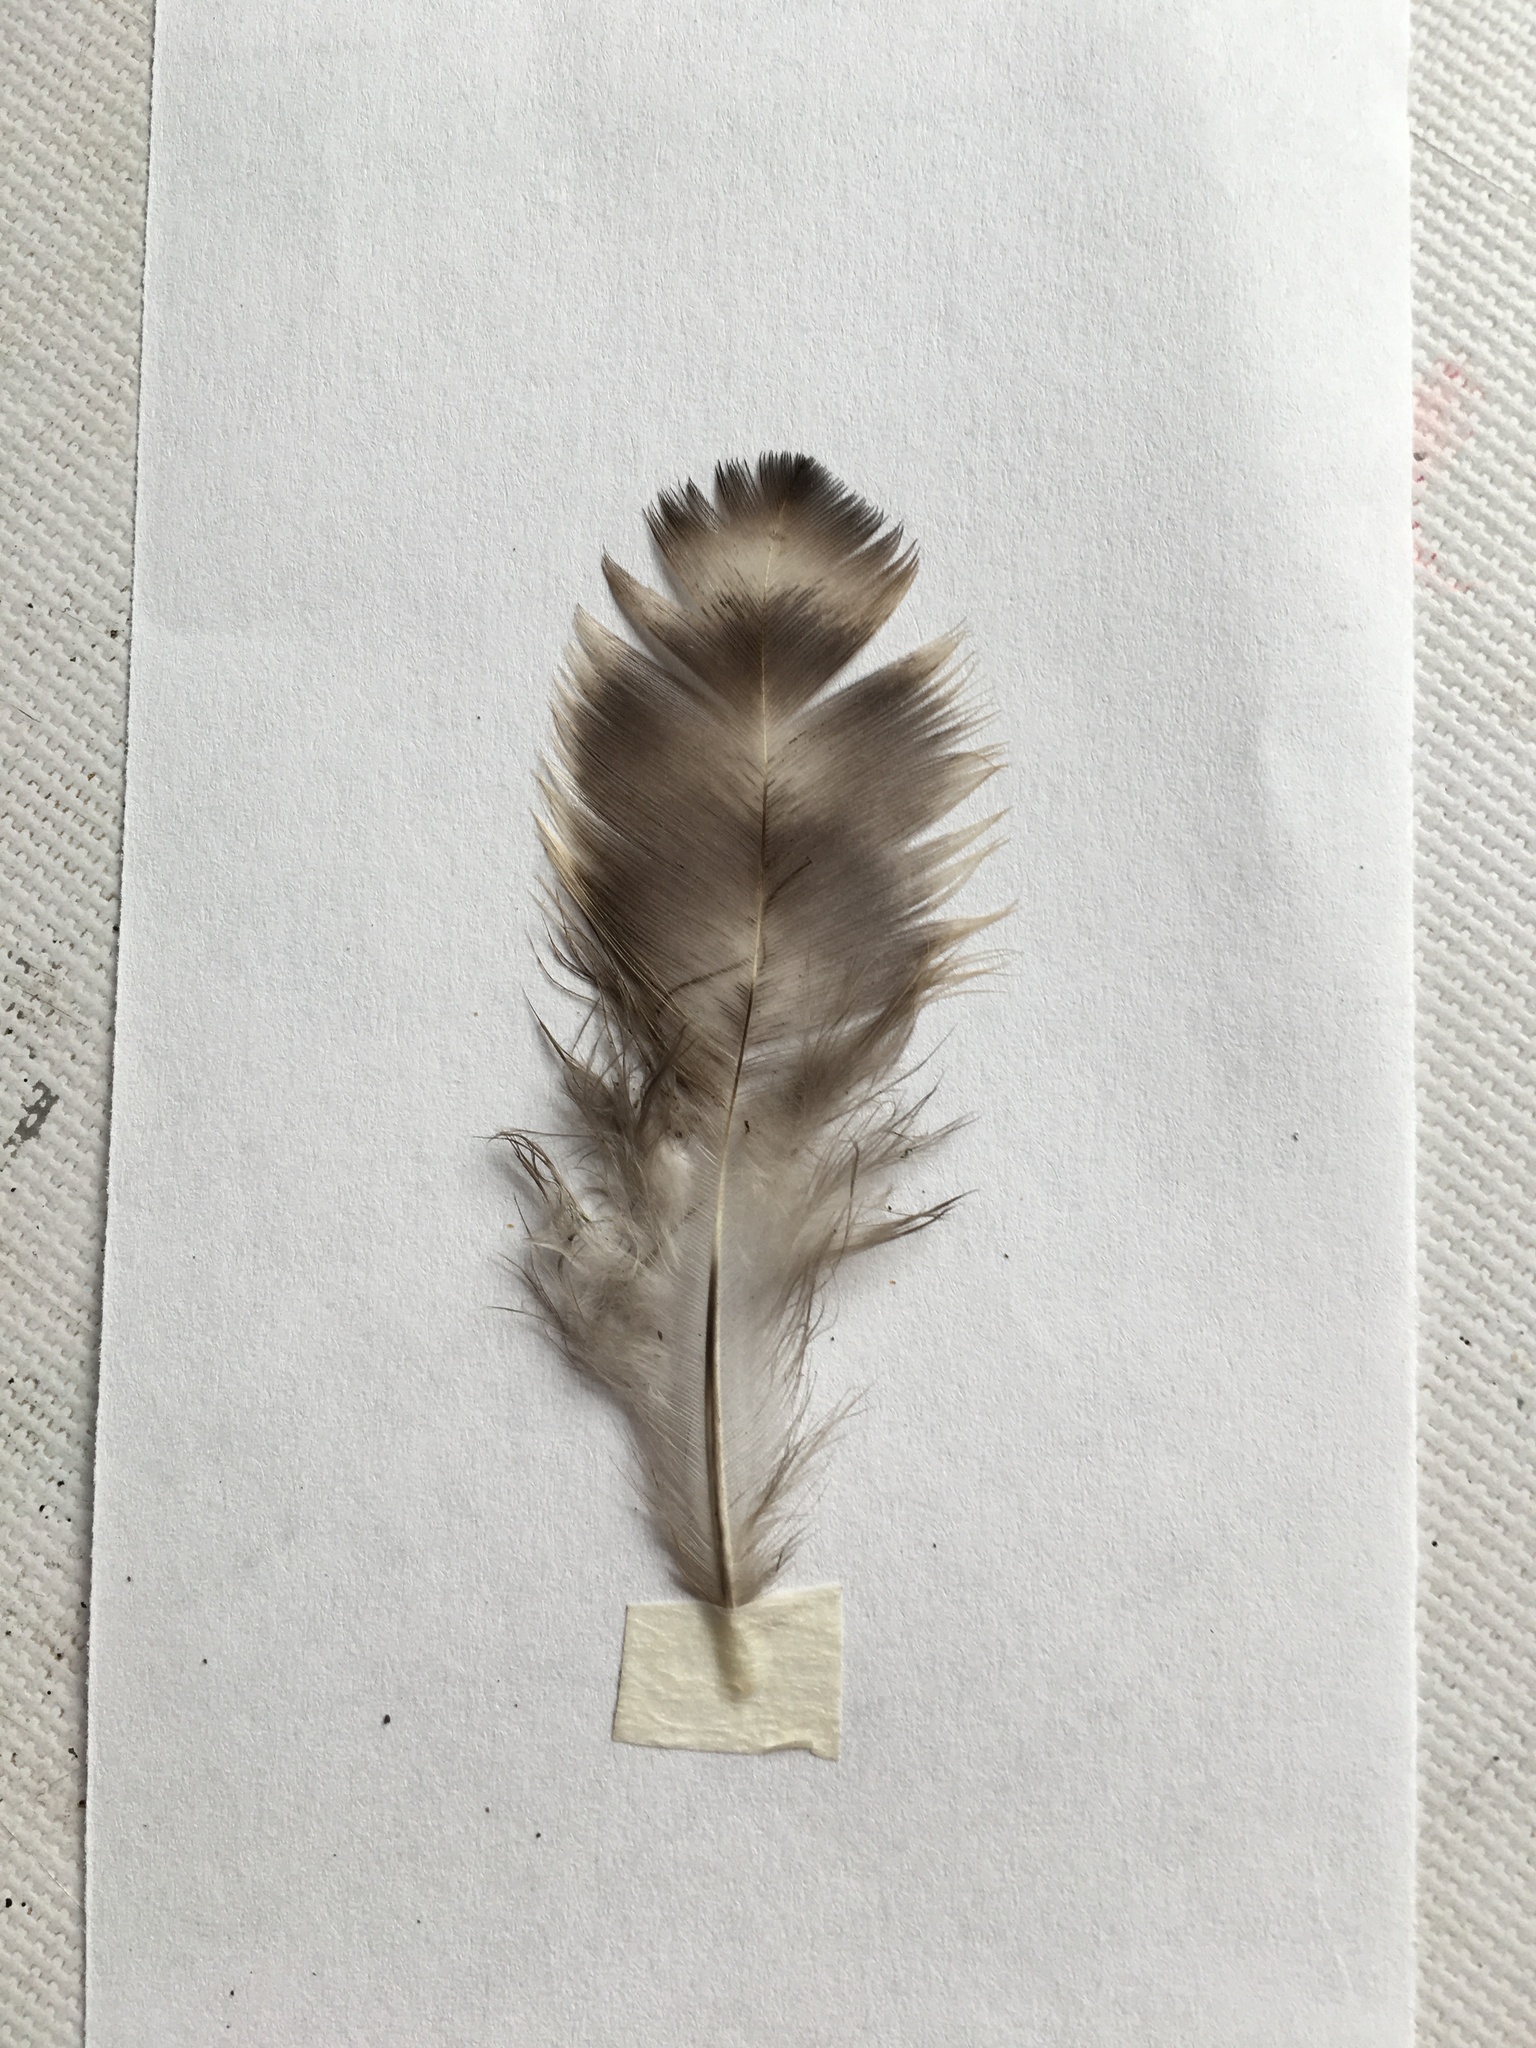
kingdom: Animalia
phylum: Chordata
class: Aves
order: Galliformes
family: Phasianidae
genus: Gallus
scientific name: Gallus gallus
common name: Red junglefowl
